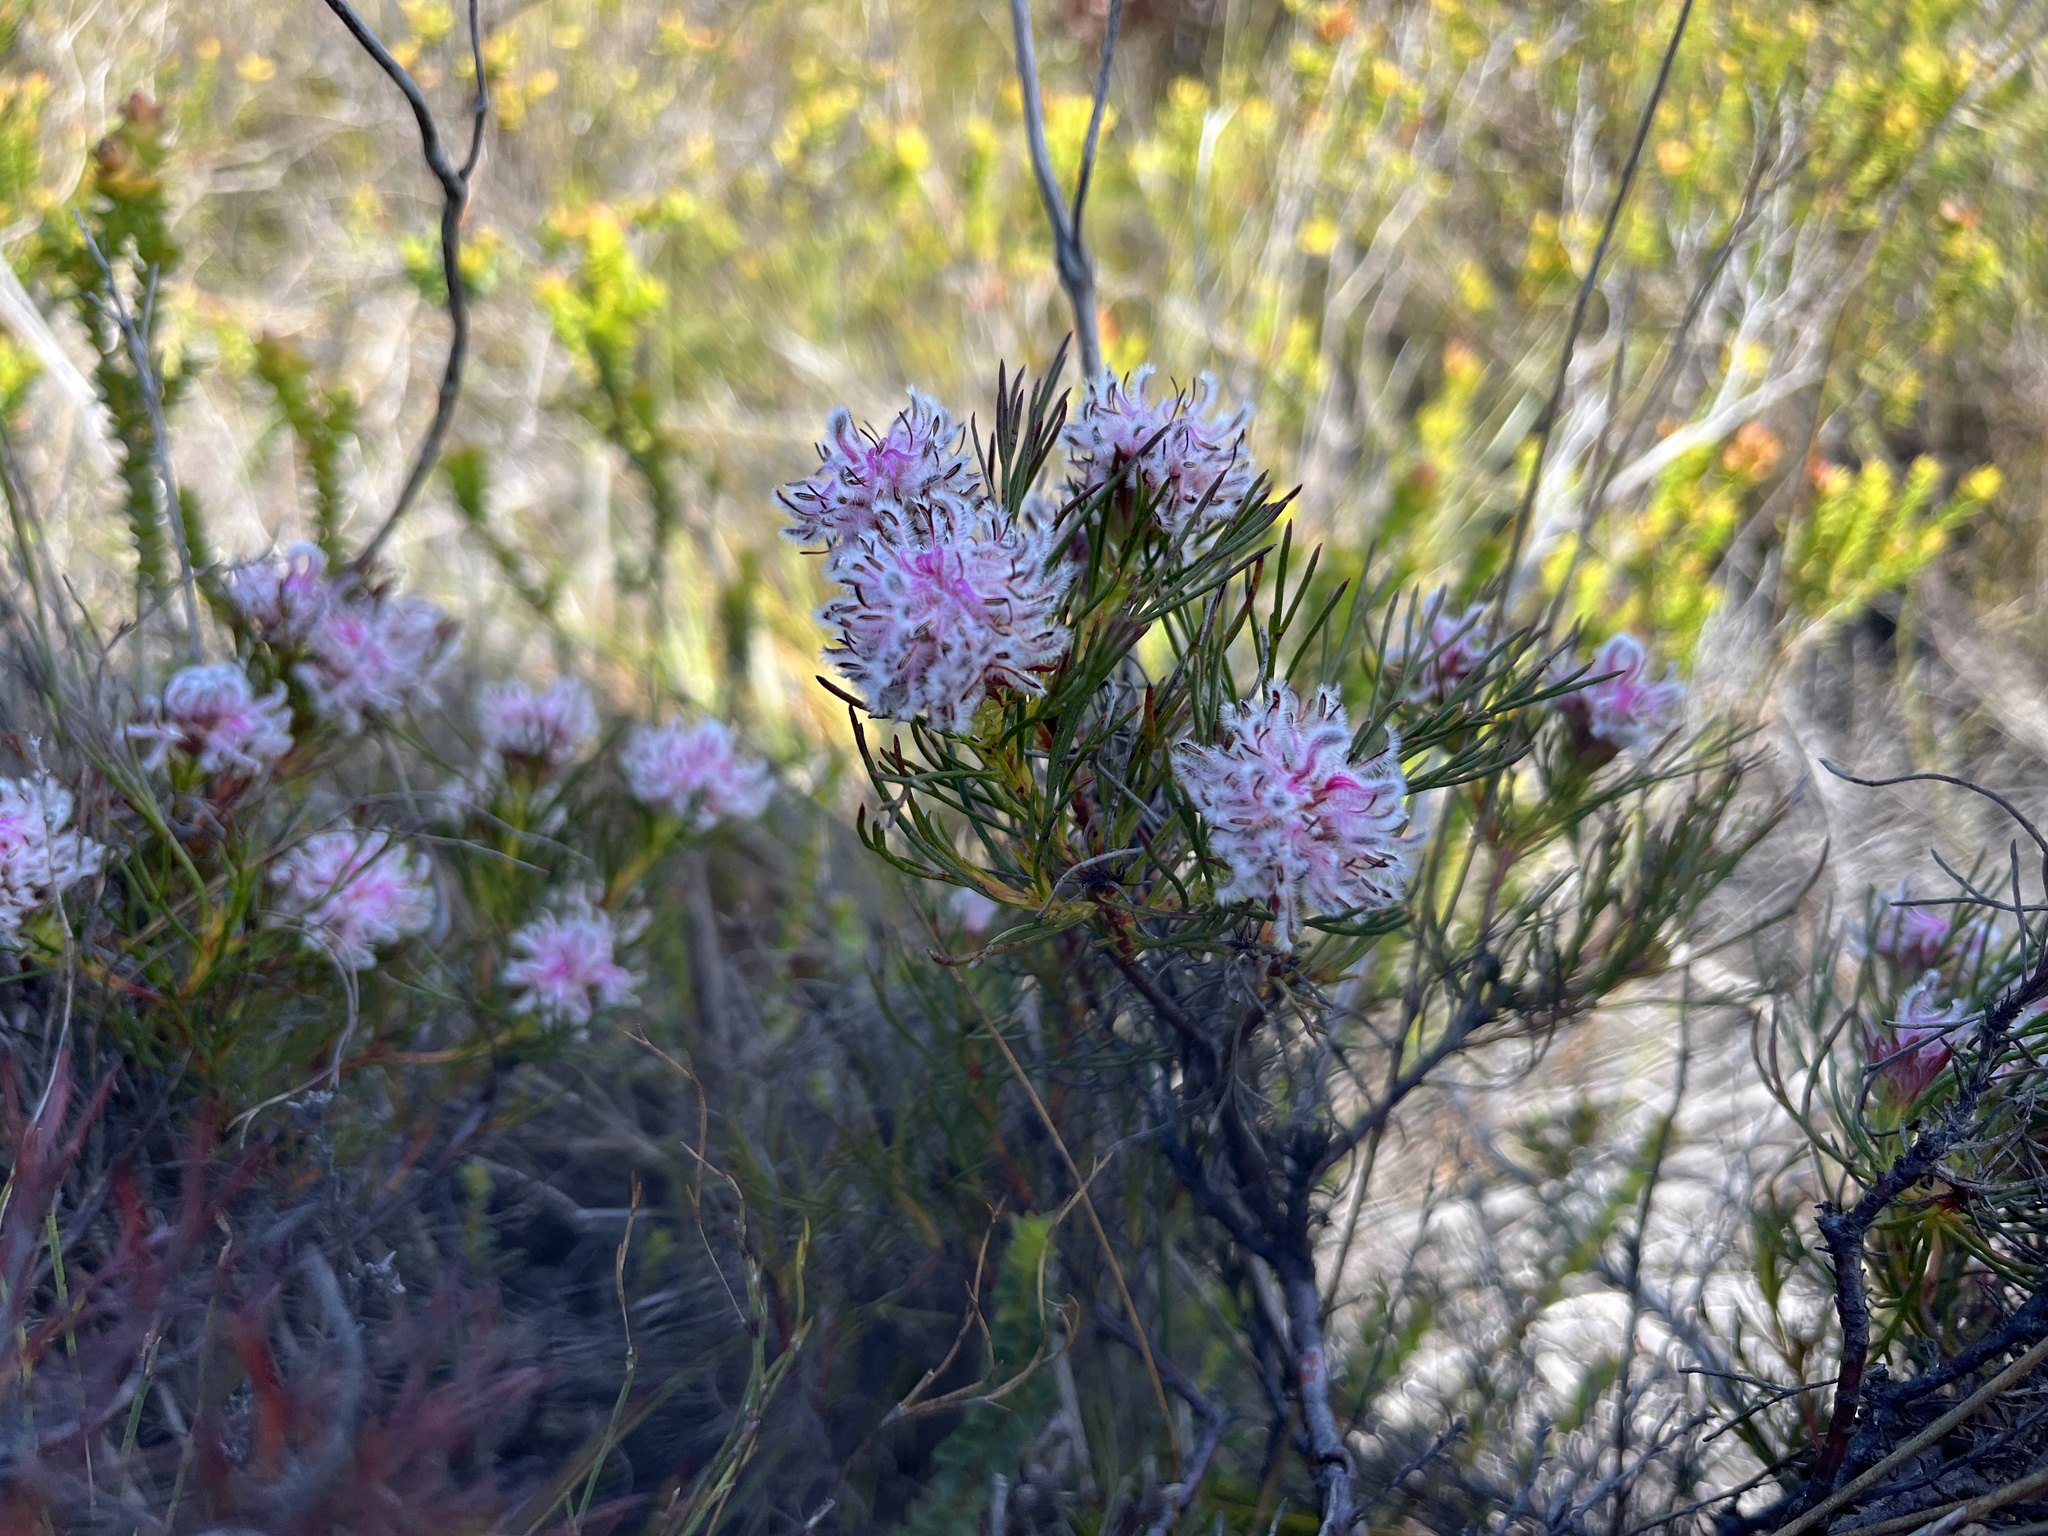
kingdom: Plantae
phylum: Tracheophyta
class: Magnoliopsida
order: Proteales
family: Proteaceae
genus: Serruria
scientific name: Serruria nervosa
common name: Fluted spiderhead
